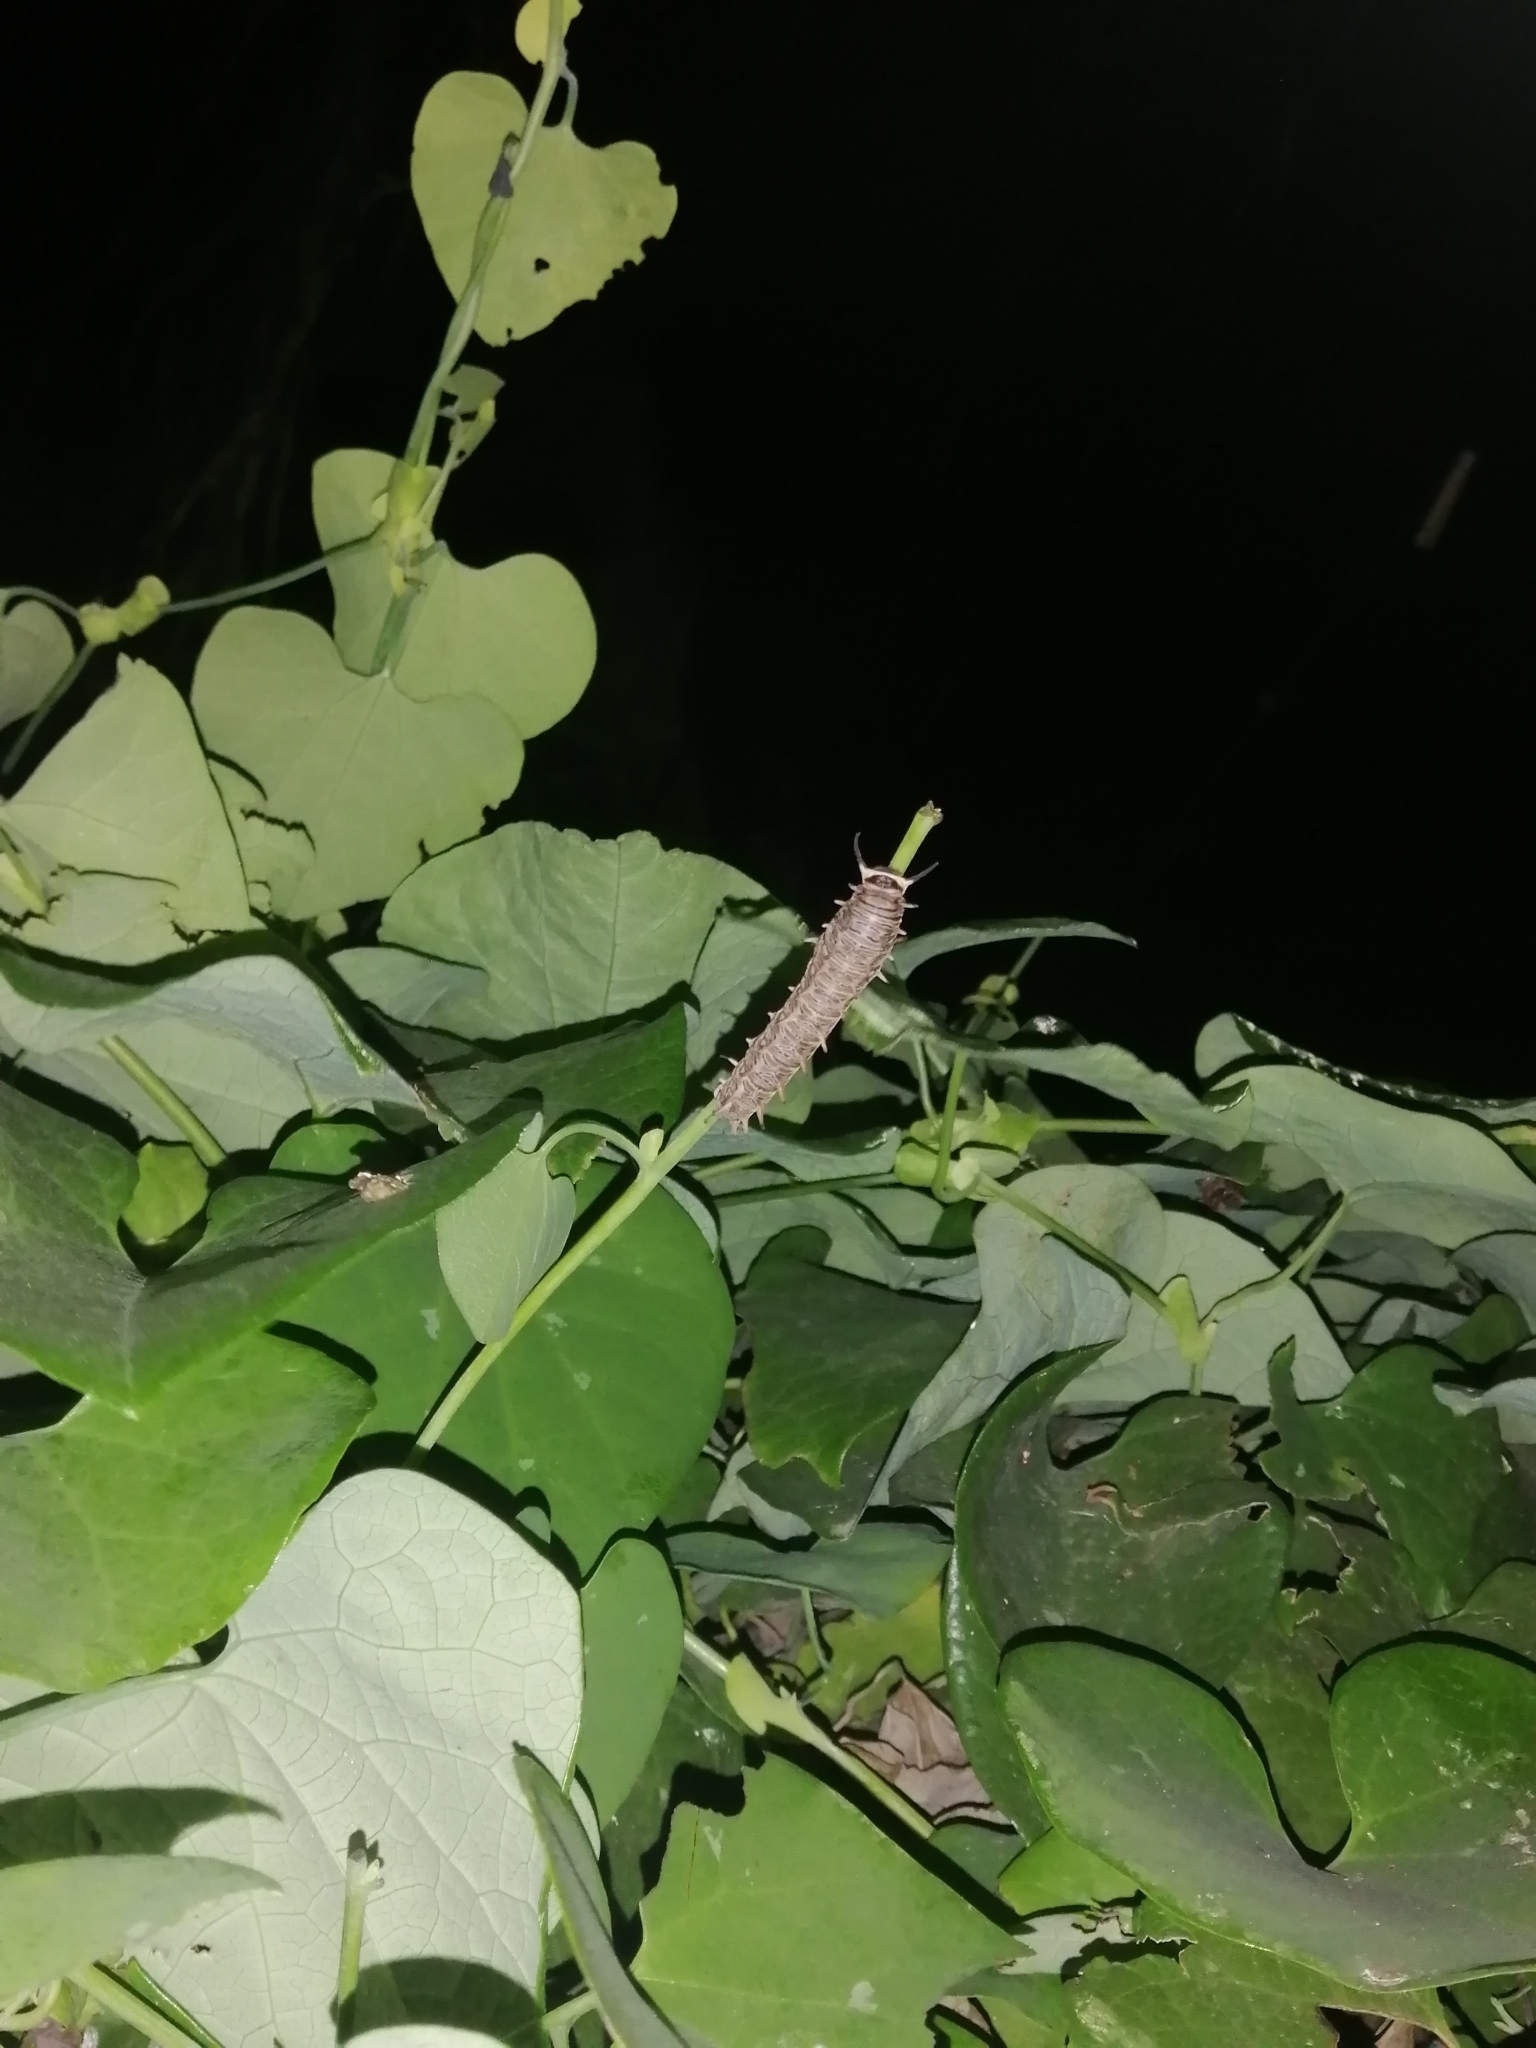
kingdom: Animalia
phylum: Arthropoda
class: Insecta
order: Lepidoptera
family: Papilionidae
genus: Battus
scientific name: Battus polydamas
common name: Polydamas swallowtail
